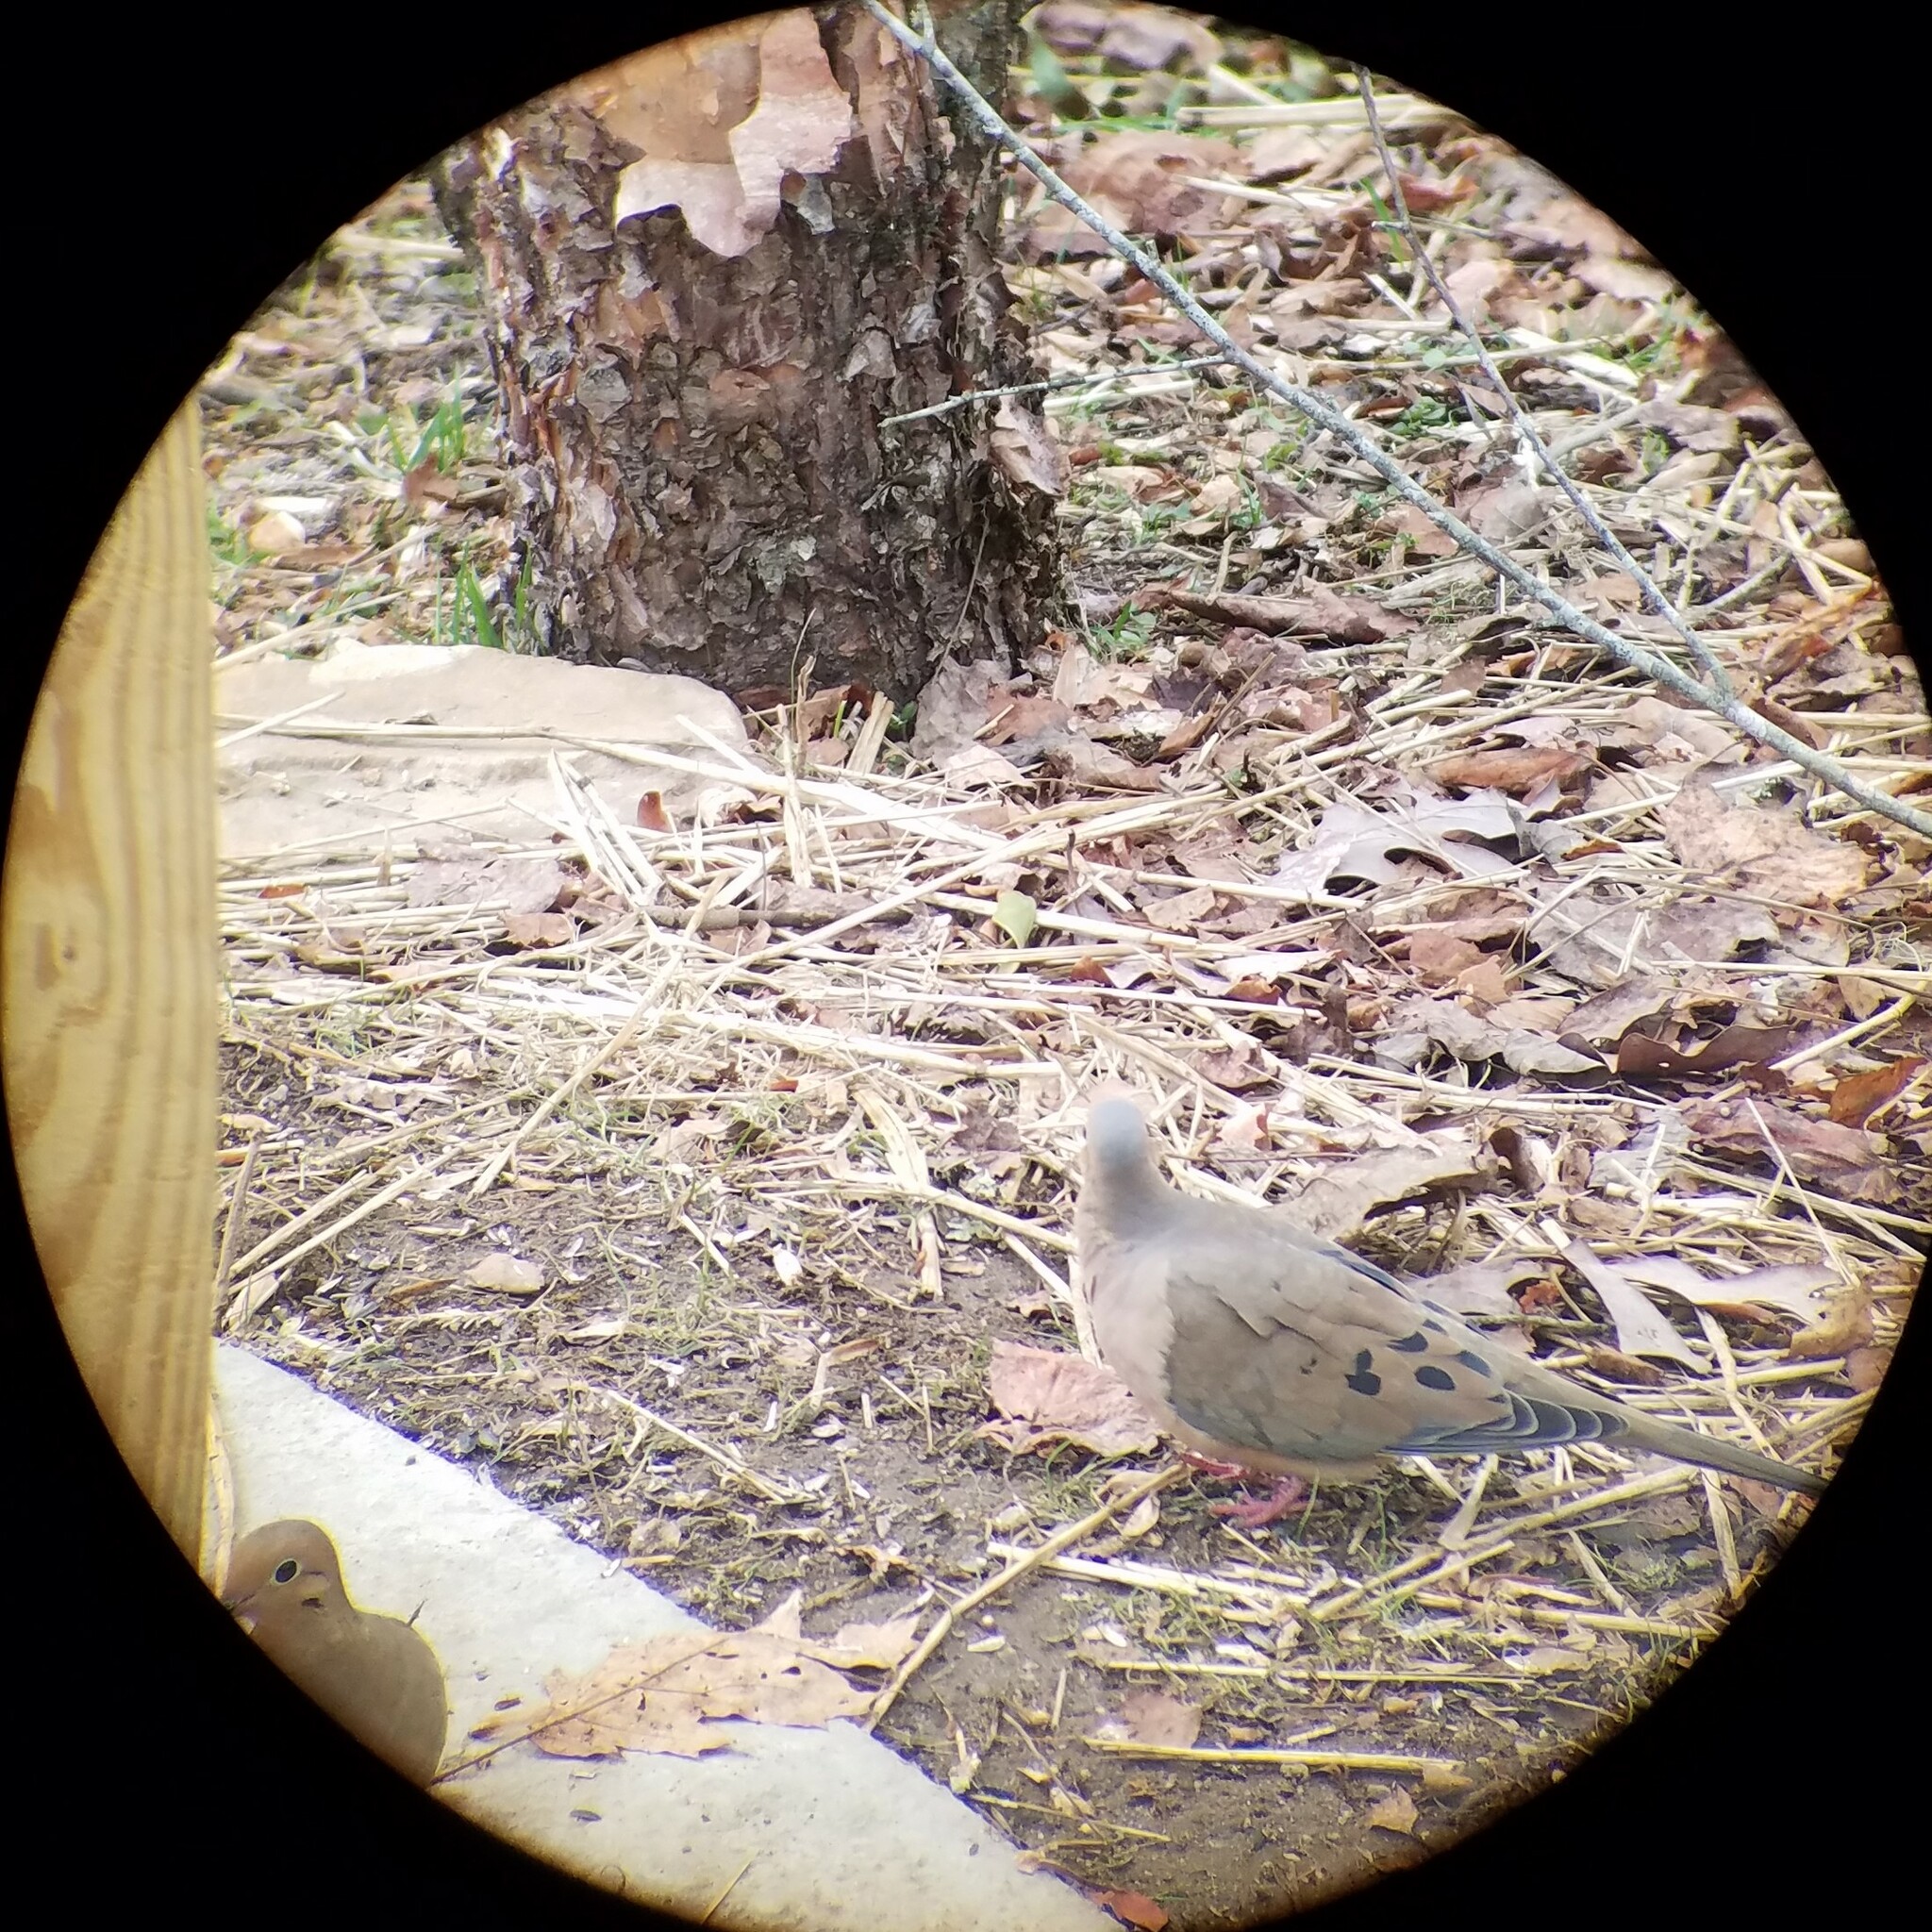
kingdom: Animalia
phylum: Chordata
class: Aves
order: Columbiformes
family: Columbidae
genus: Zenaida
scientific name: Zenaida macroura
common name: Mourning dove
